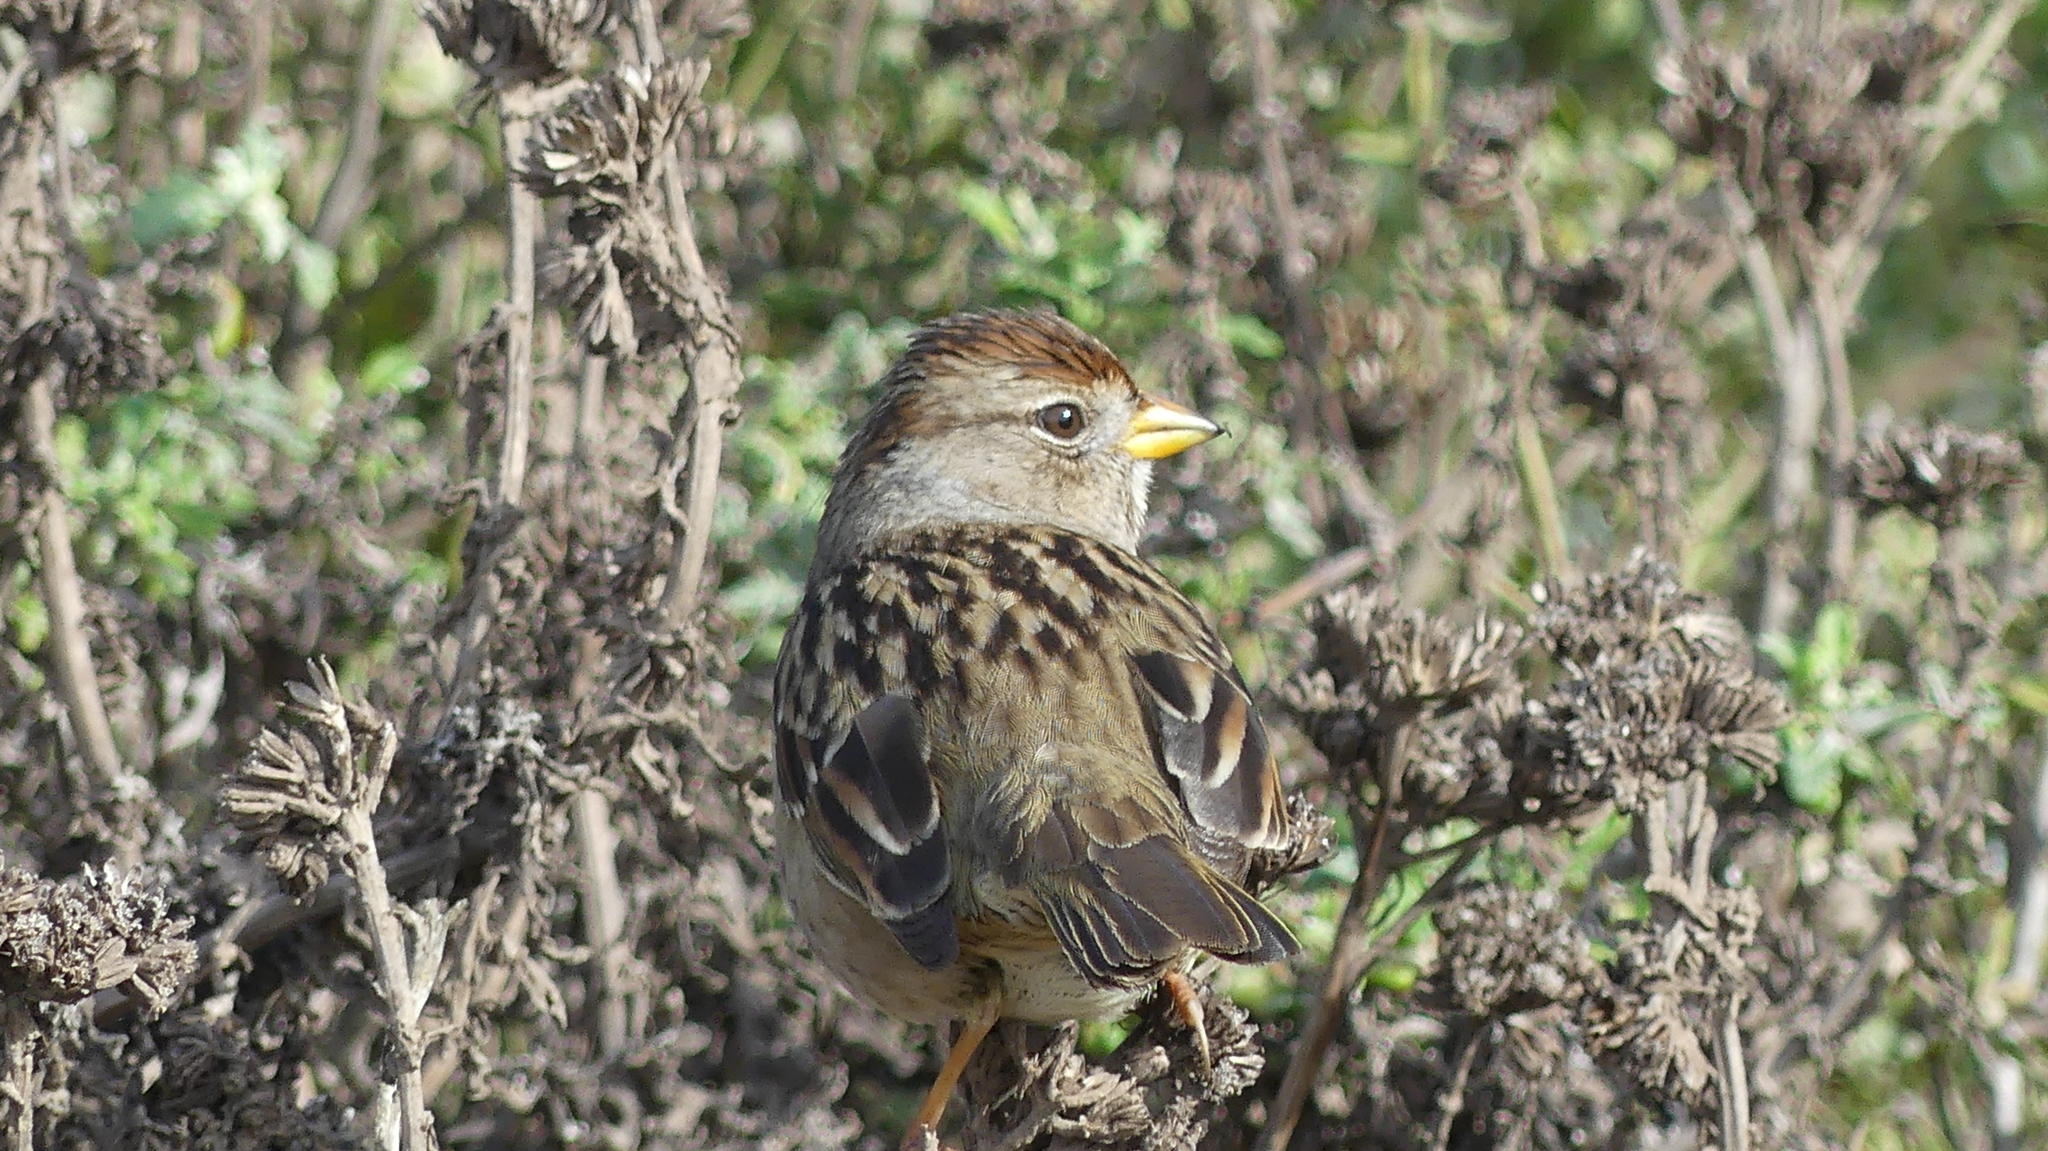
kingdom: Animalia
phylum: Chordata
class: Aves
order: Passeriformes
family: Passerellidae
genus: Zonotrichia
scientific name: Zonotrichia leucophrys
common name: White-crowned sparrow
